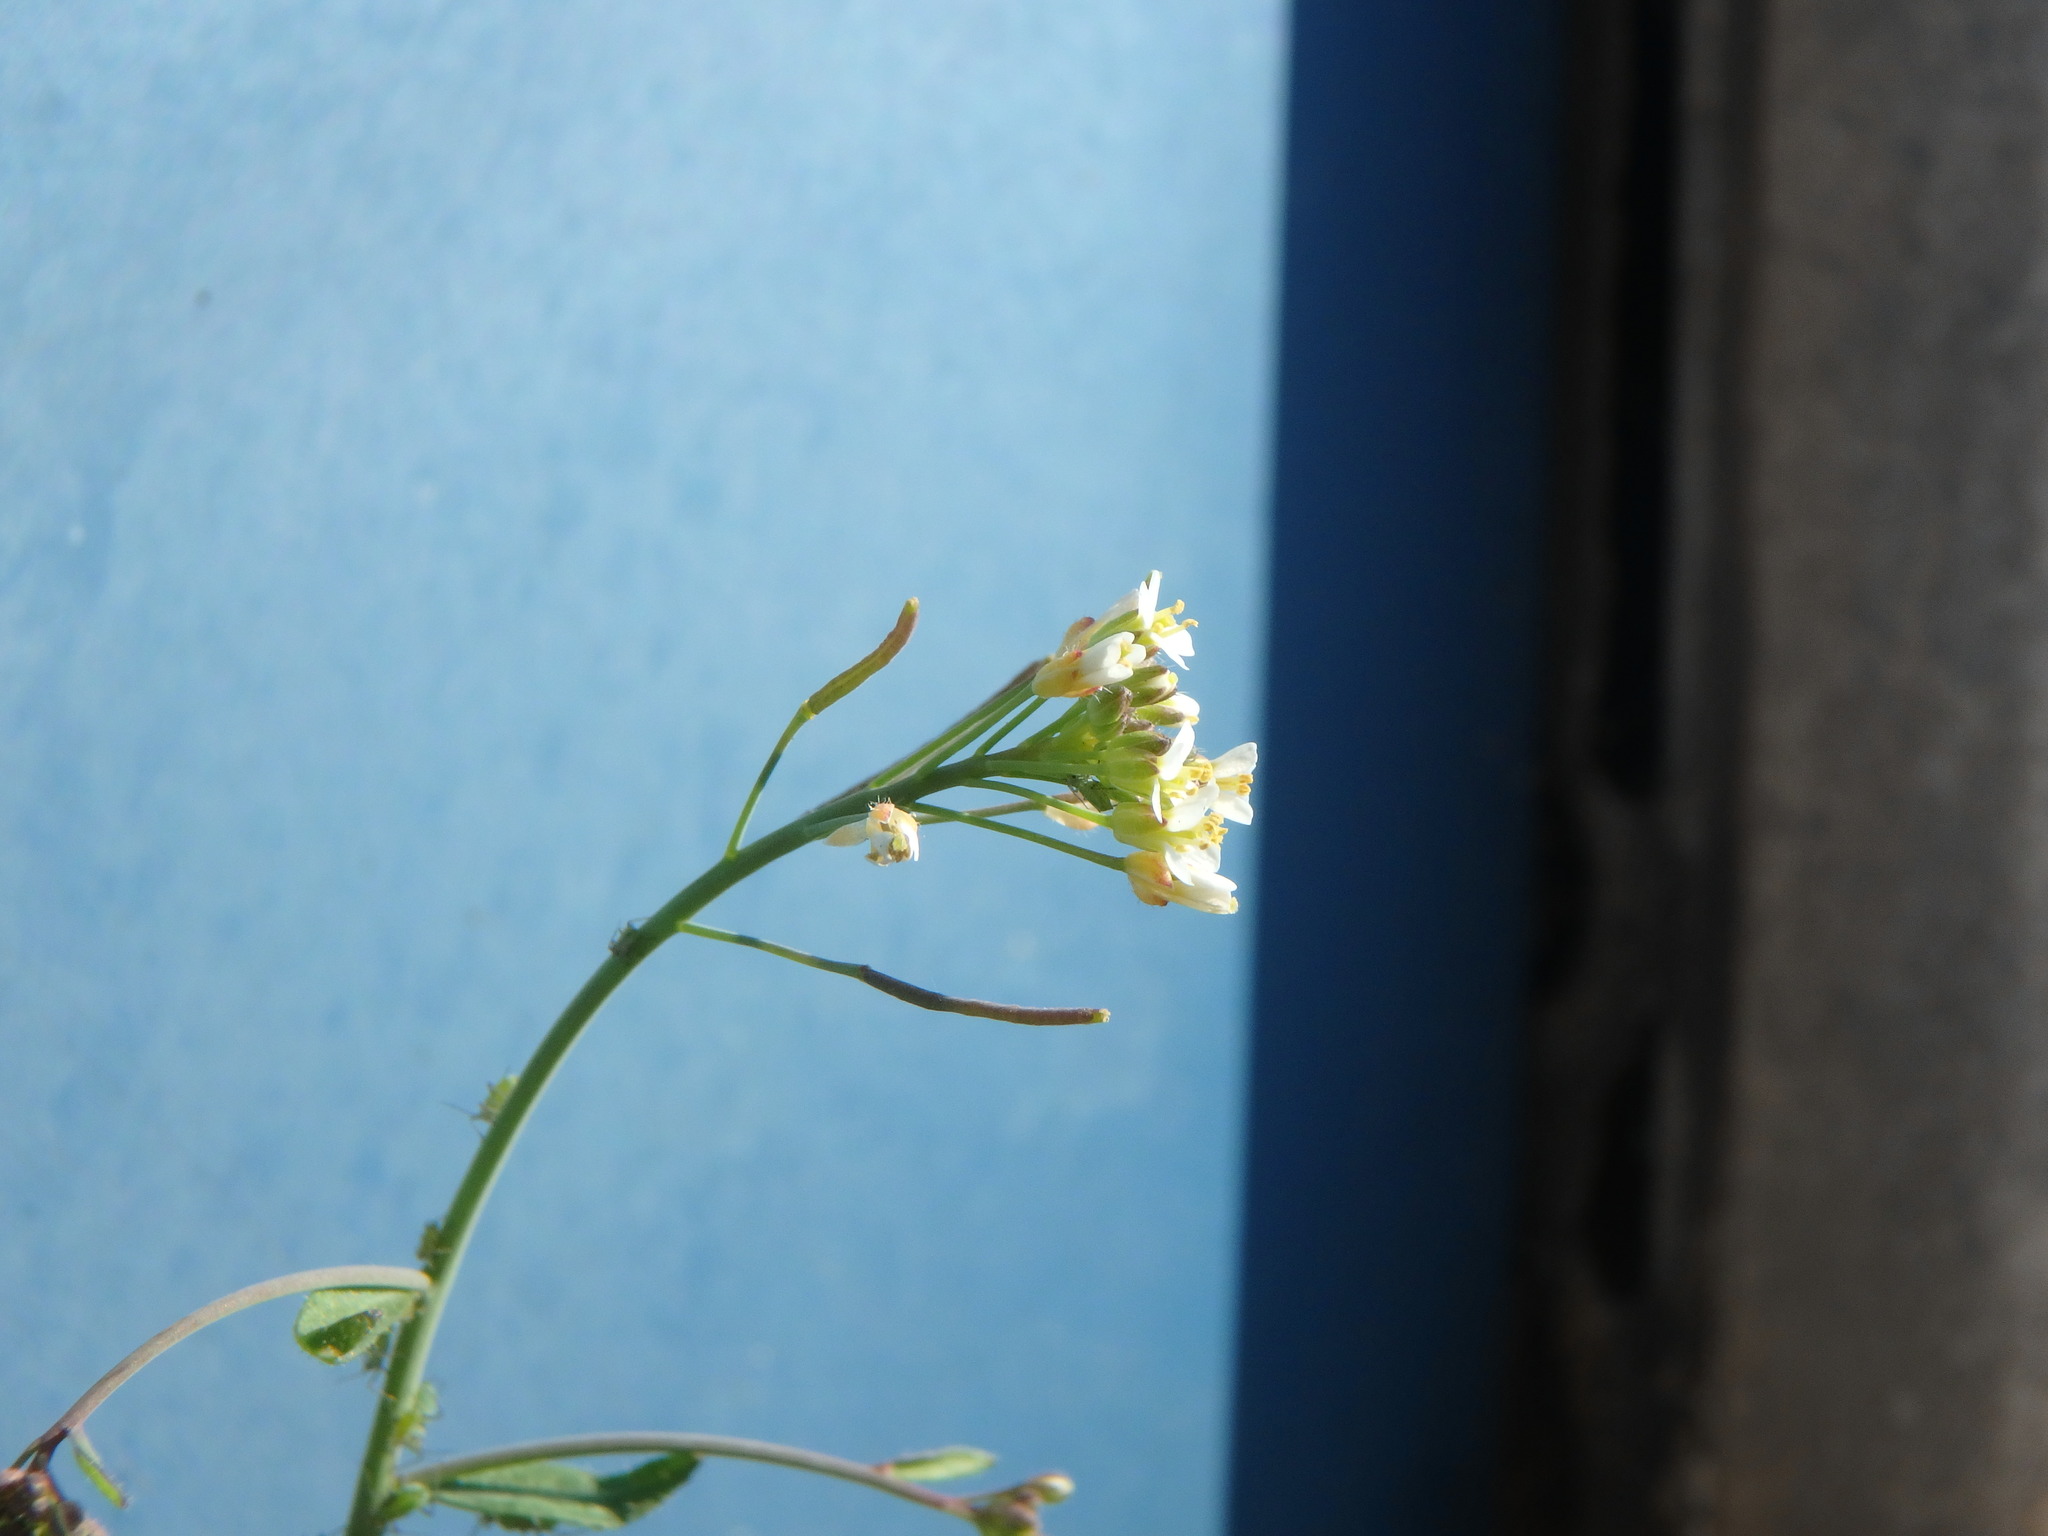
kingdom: Plantae
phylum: Tracheophyta
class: Magnoliopsida
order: Brassicales
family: Brassicaceae
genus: Arabidopsis
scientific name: Arabidopsis thaliana
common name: Thale cress
